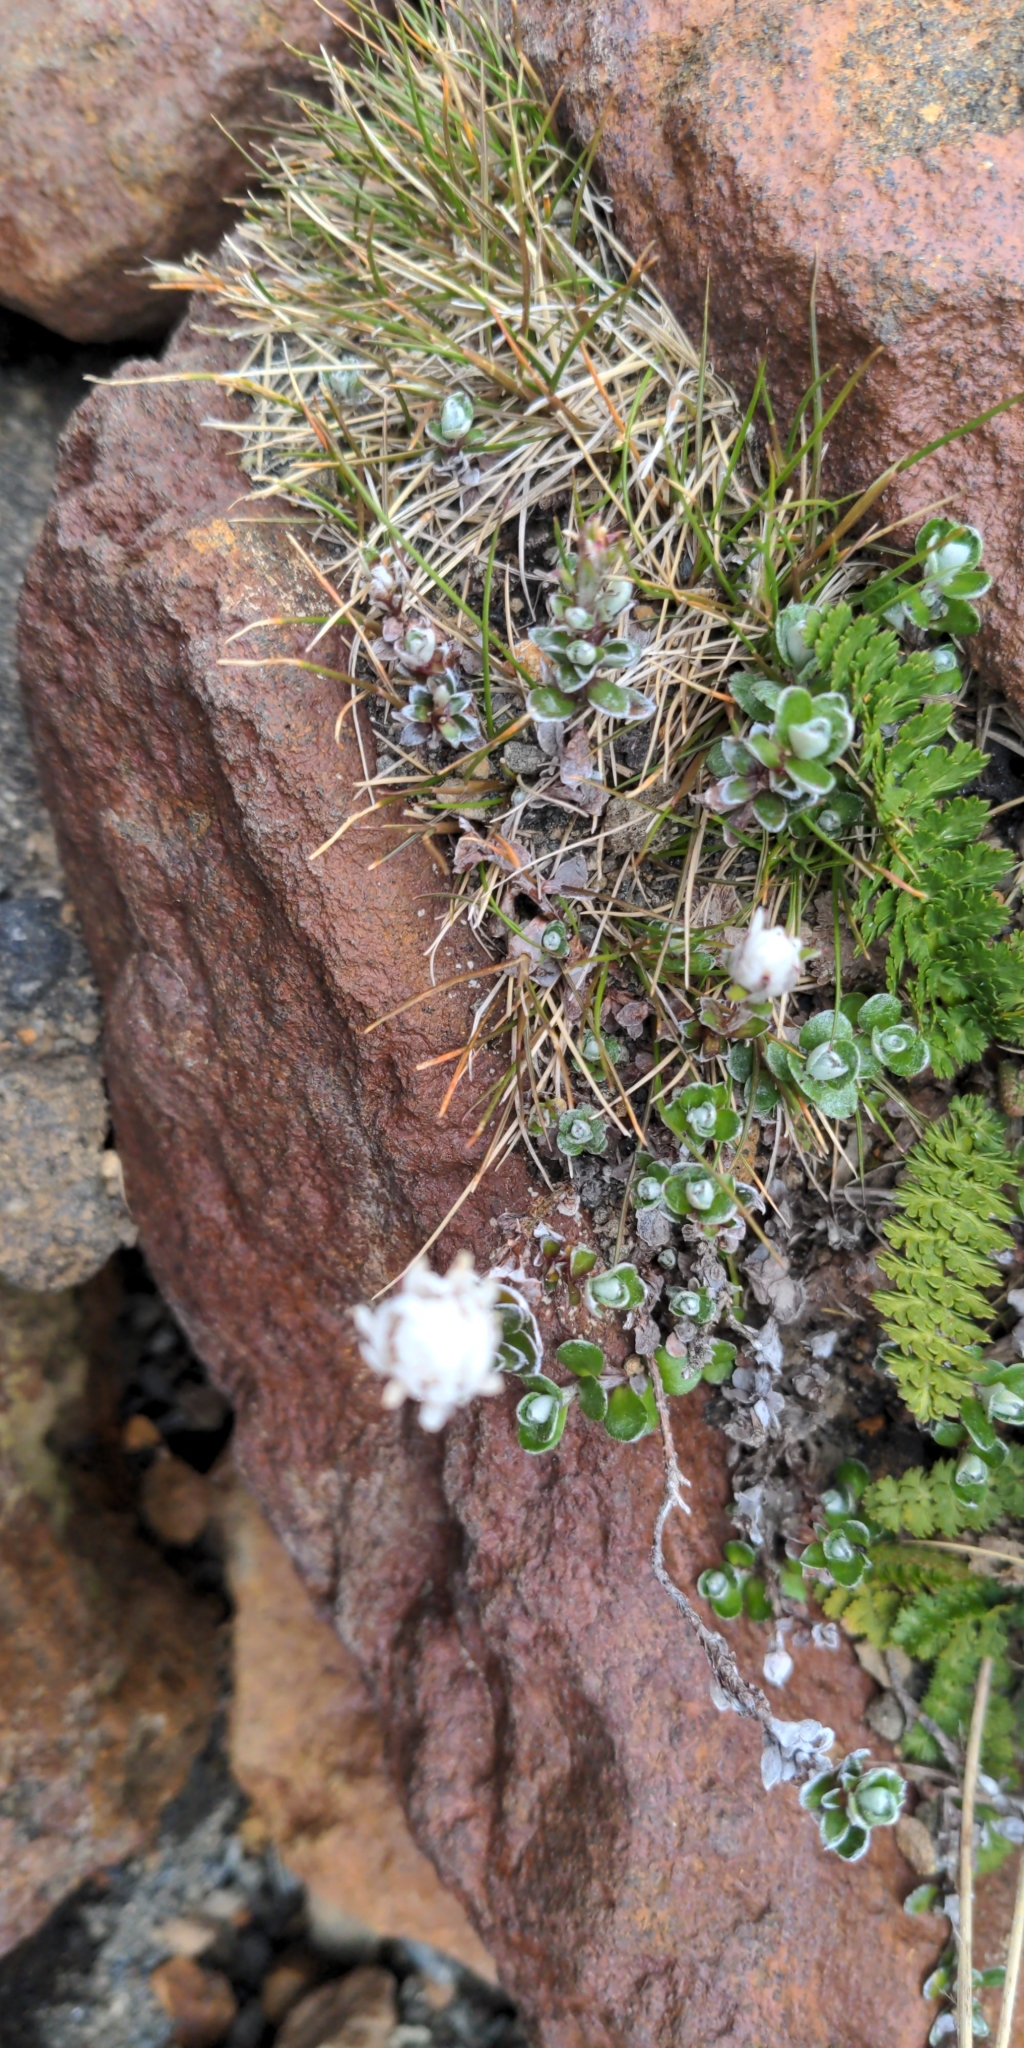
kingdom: Plantae
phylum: Tracheophyta
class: Magnoliopsida
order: Asterales
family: Asteraceae
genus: Anaphalioides
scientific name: Anaphalioides alpina
